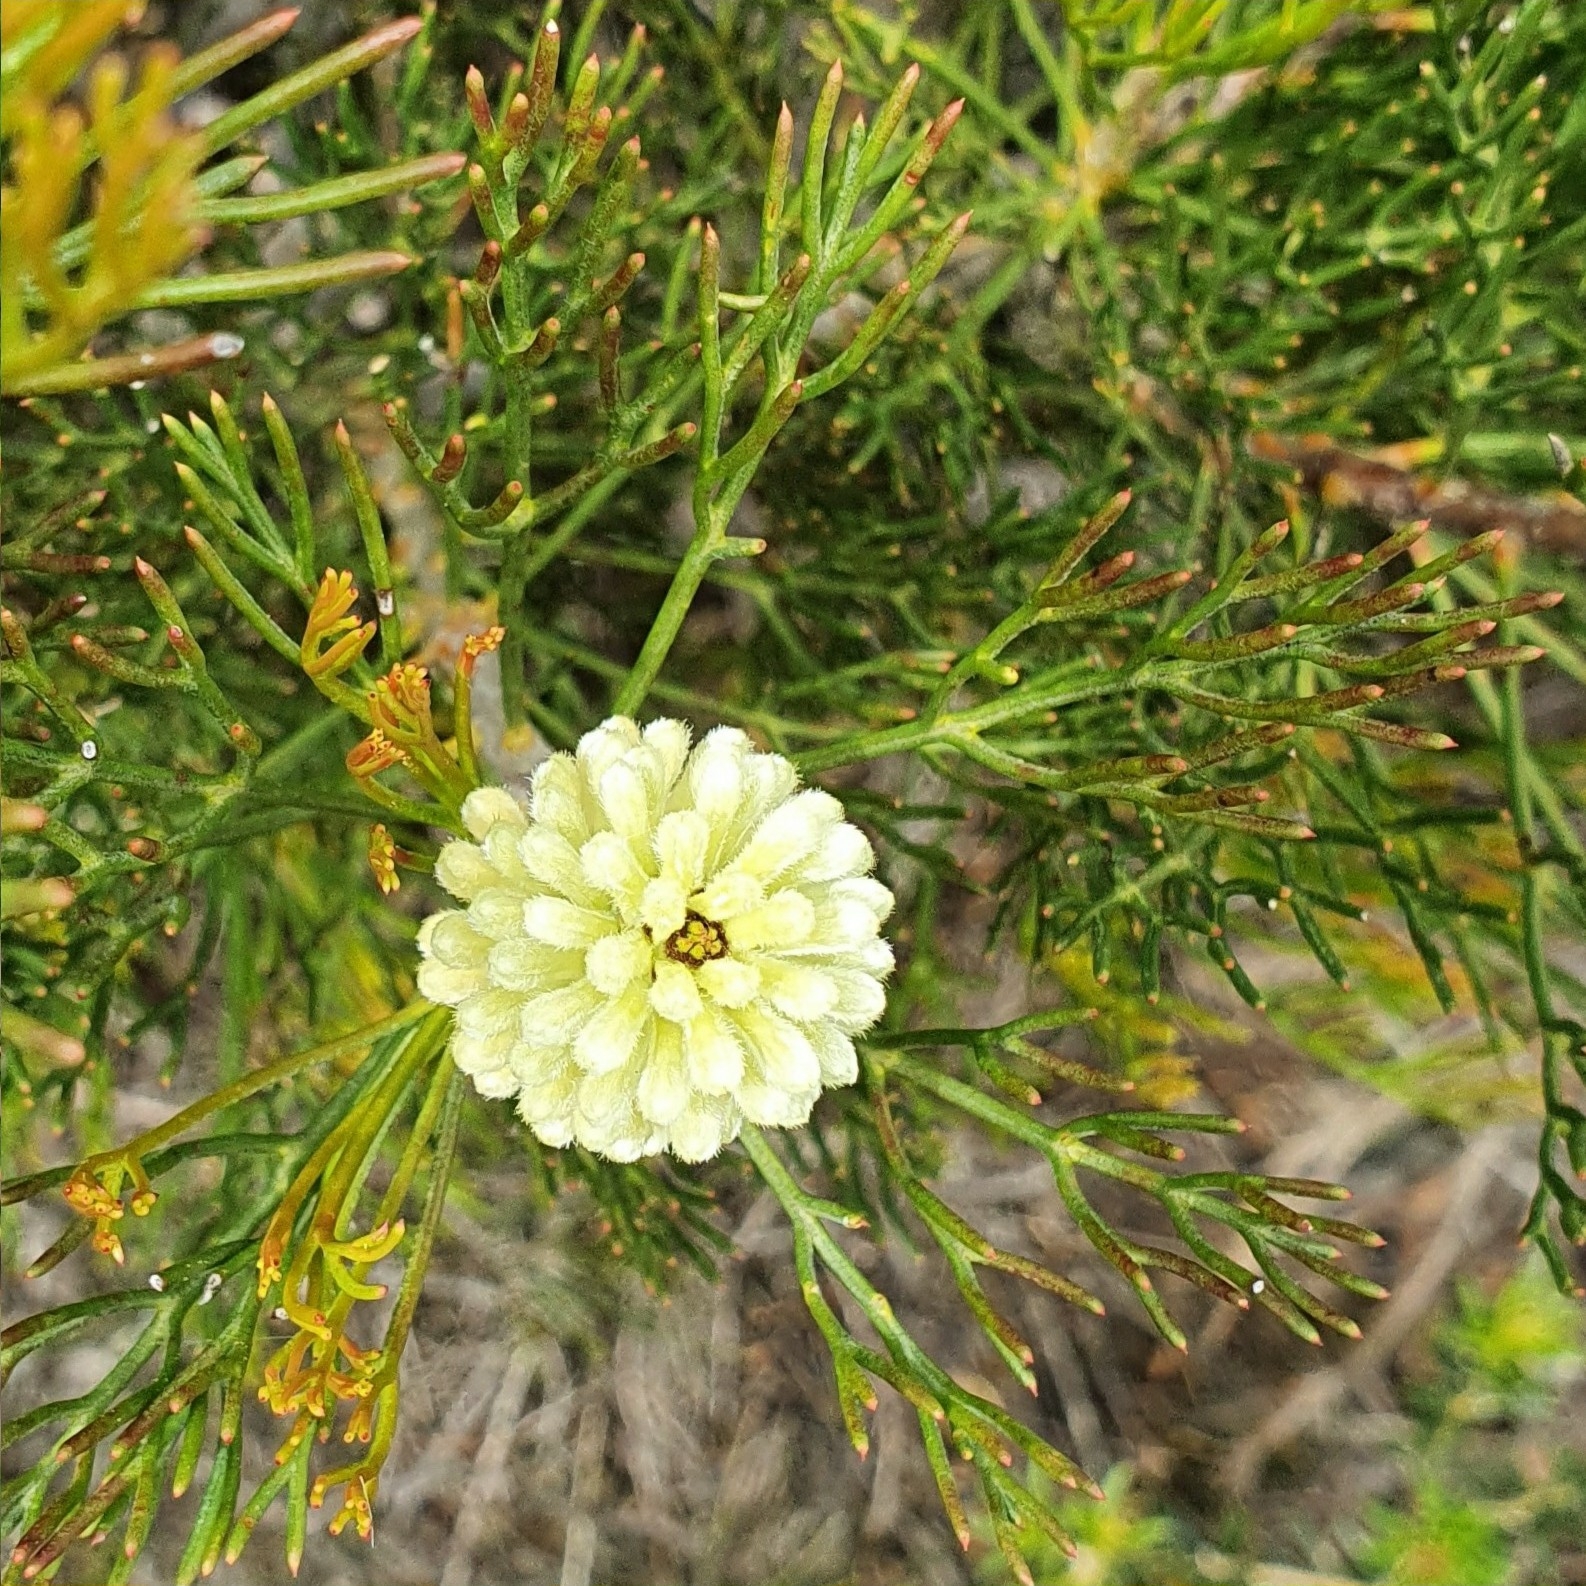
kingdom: Plantae
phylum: Tracheophyta
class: Magnoliopsida
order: Proteales
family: Proteaceae
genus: Petrophile
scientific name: Petrophile pulchella
